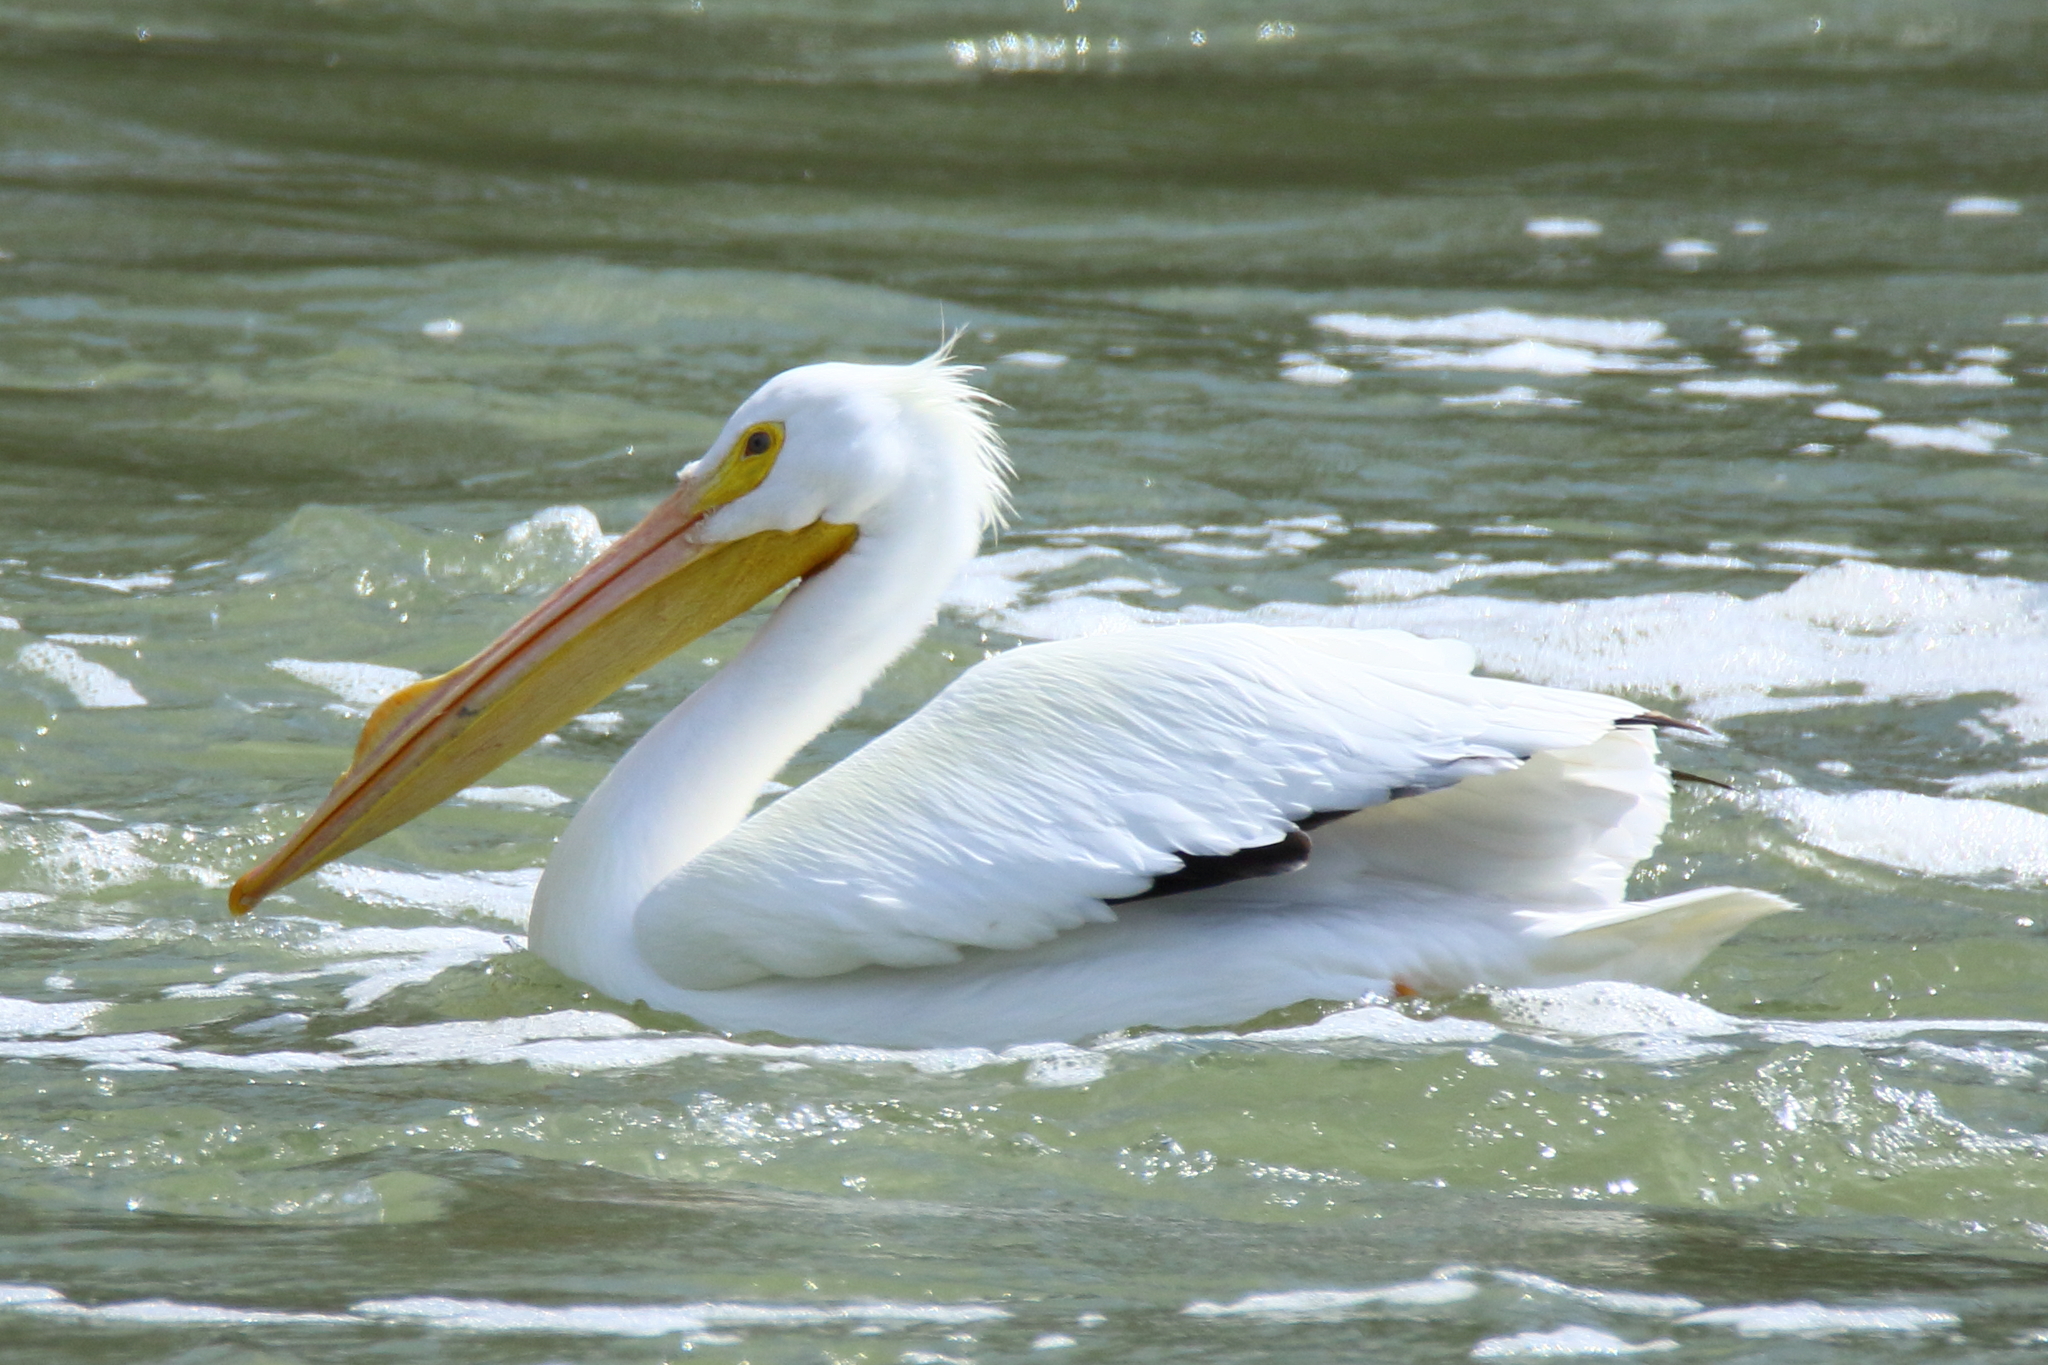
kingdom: Animalia
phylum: Chordata
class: Aves
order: Pelecaniformes
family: Pelecanidae
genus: Pelecanus
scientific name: Pelecanus erythrorhynchos
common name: American white pelican
